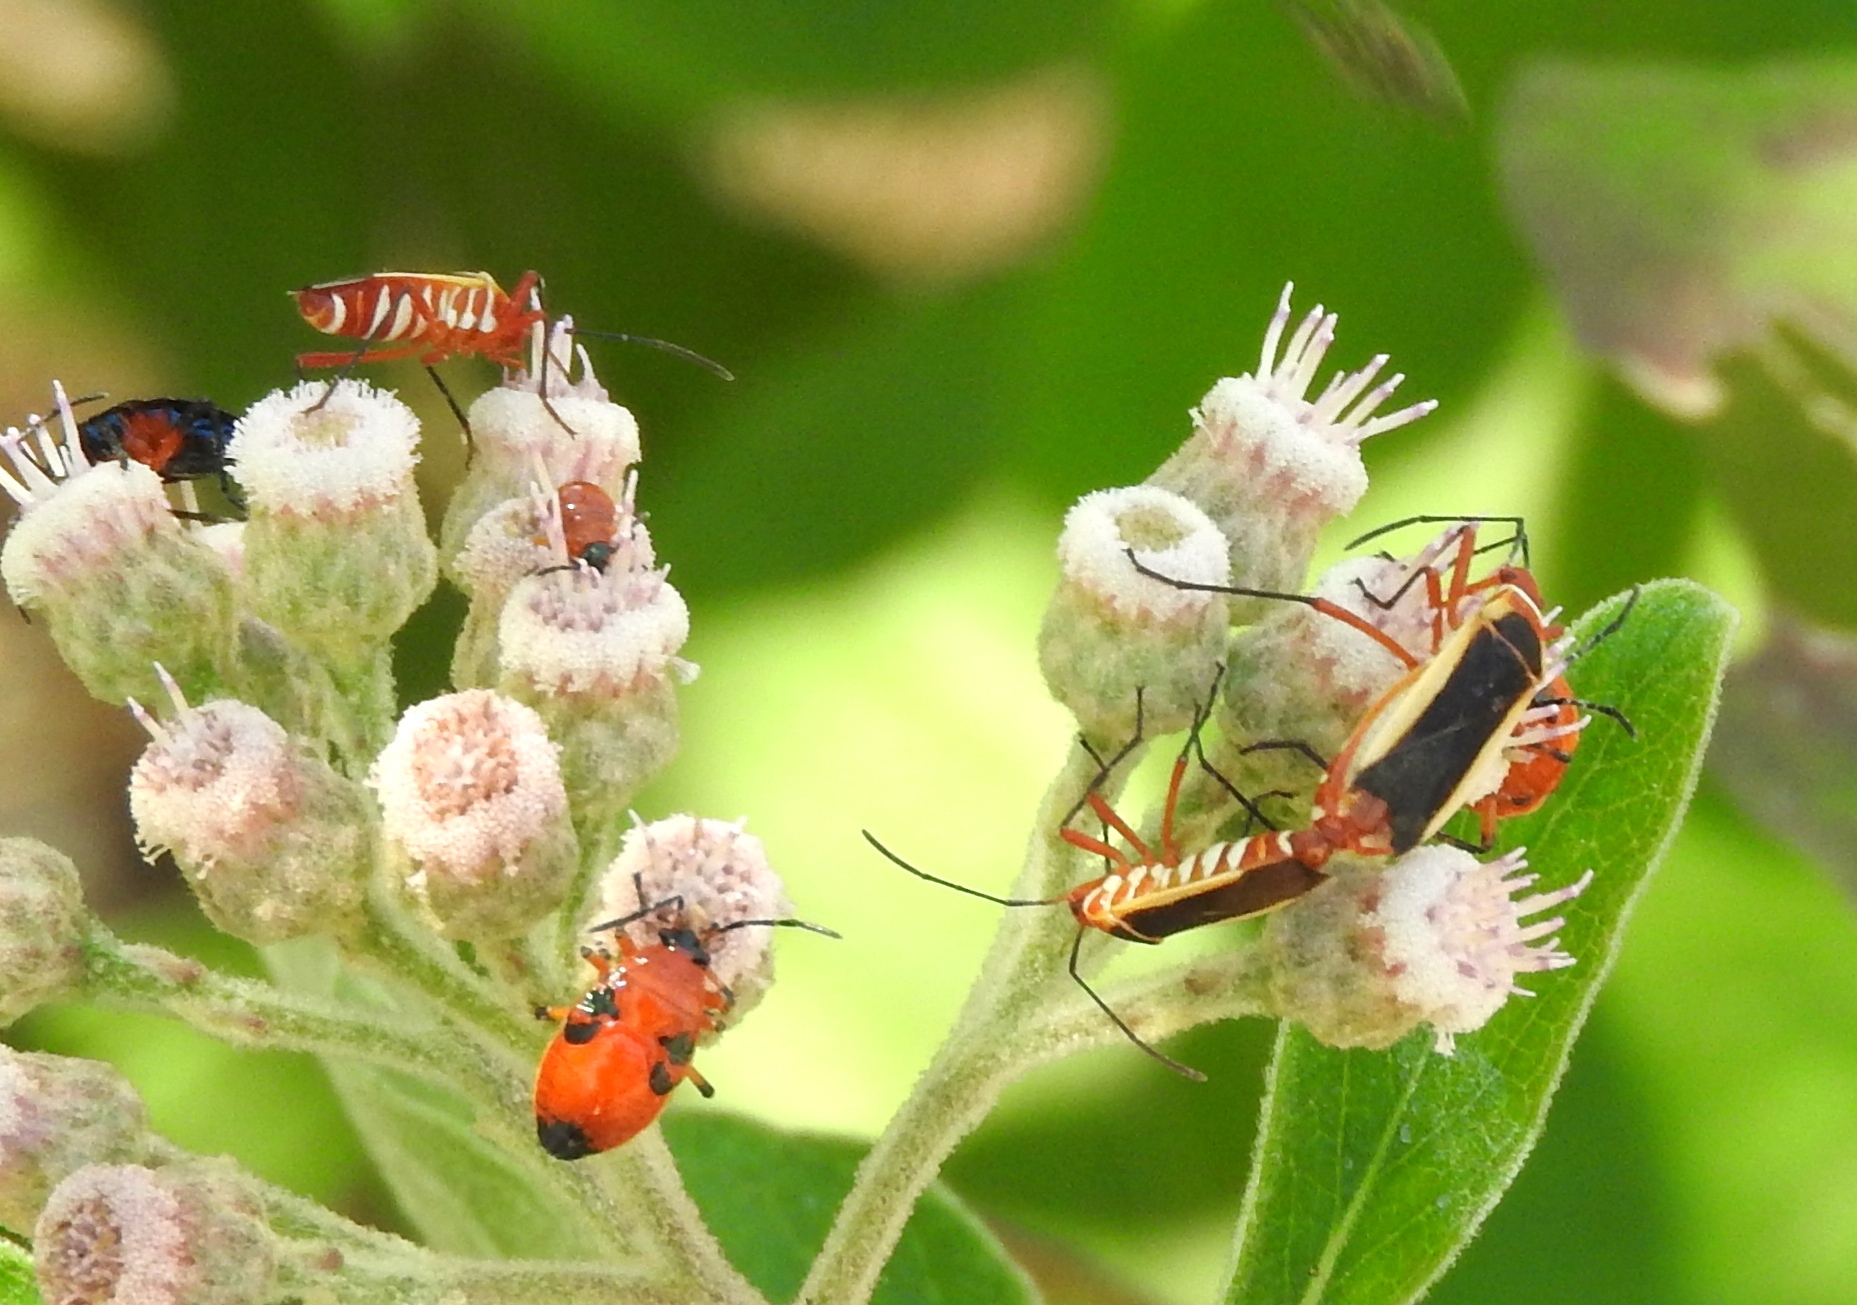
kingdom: Animalia
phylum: Arthropoda
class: Insecta
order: Hemiptera
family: Pyrrhocoridae
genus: Dysdercus
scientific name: Dysdercus obscuratus
